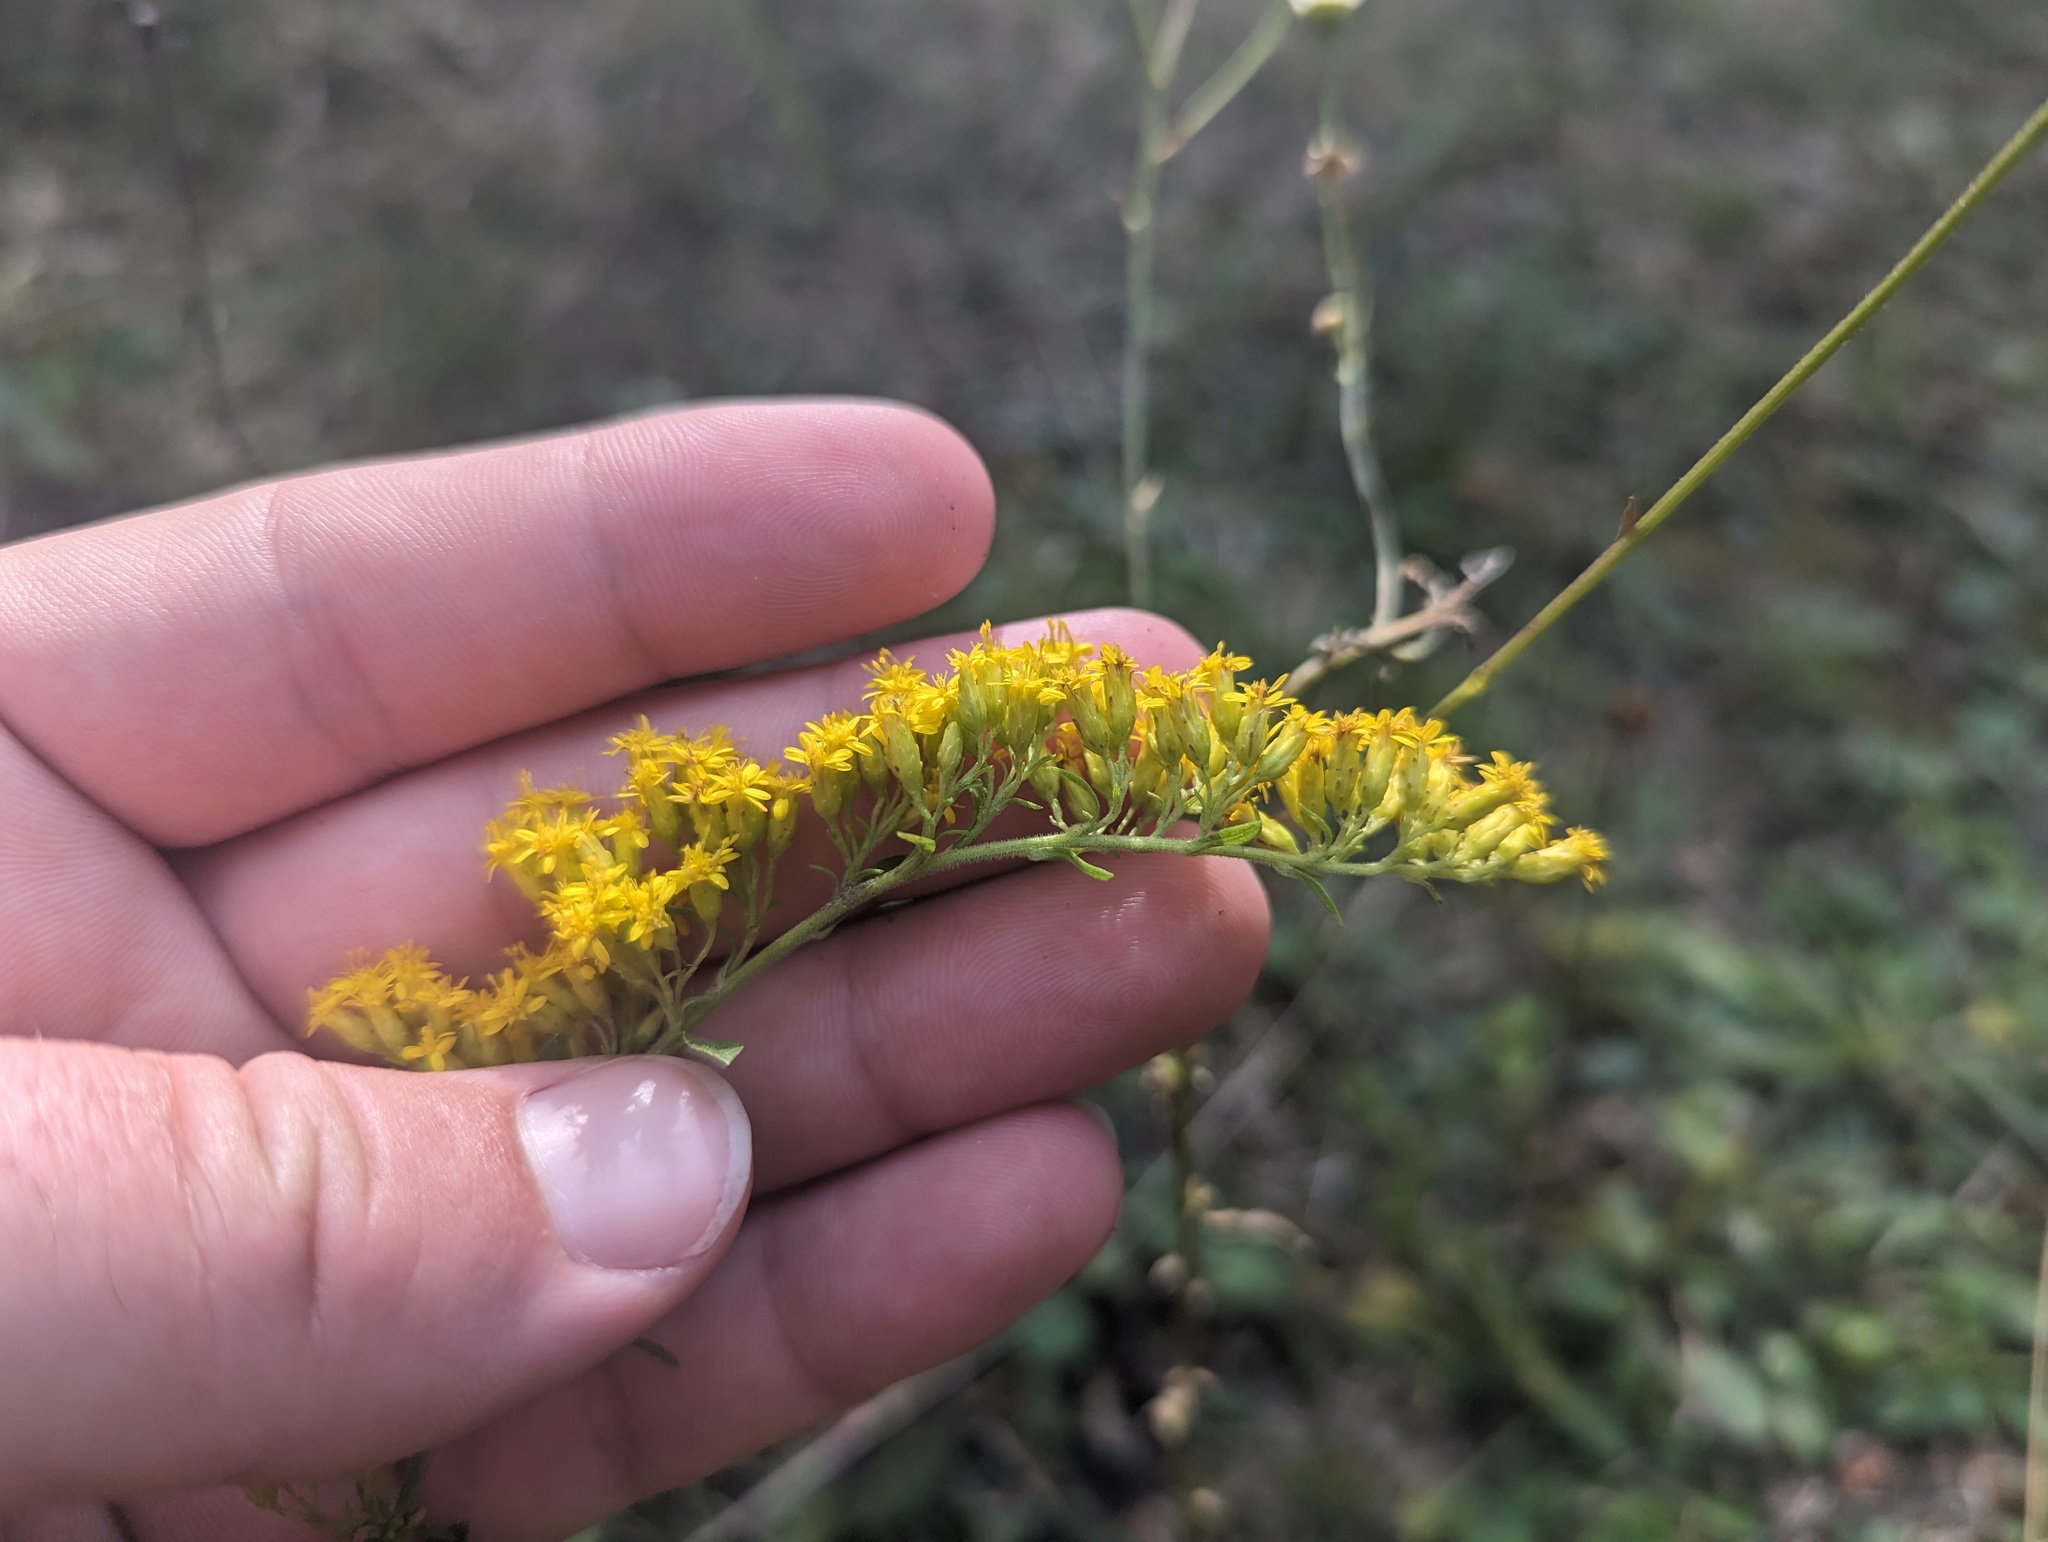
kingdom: Plantae
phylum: Tracheophyta
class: Magnoliopsida
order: Asterales
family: Asteraceae
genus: Solidago
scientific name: Solidago nemoralis
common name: Grey goldenrod
